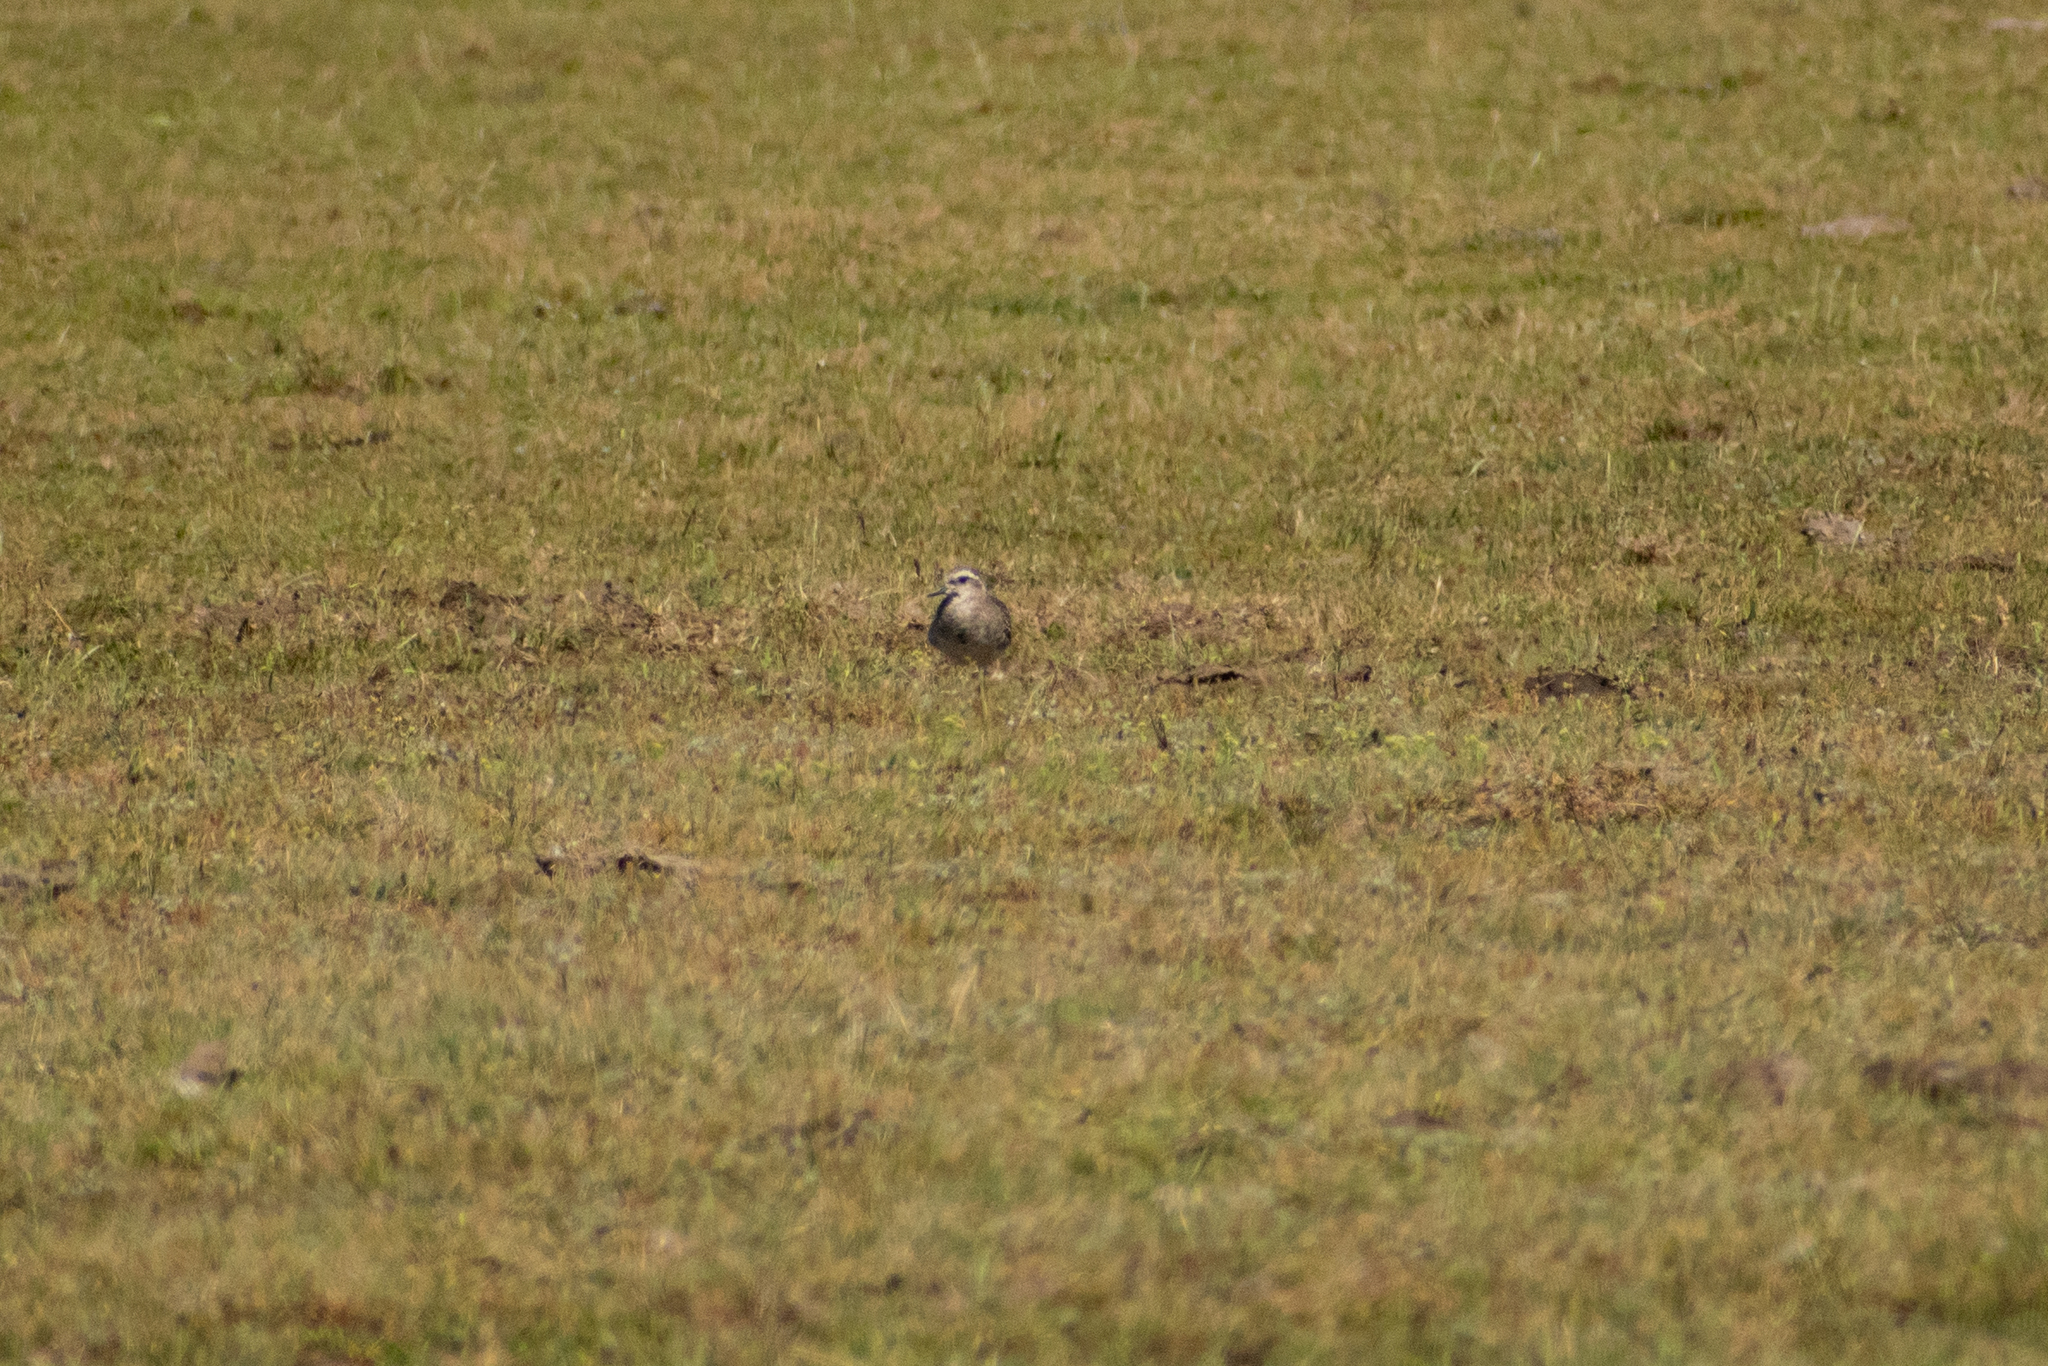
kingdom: Animalia
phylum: Chordata
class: Aves
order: Charadriiformes
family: Charadriidae
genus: Pluvialis
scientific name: Pluvialis dominica
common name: American golden plover
